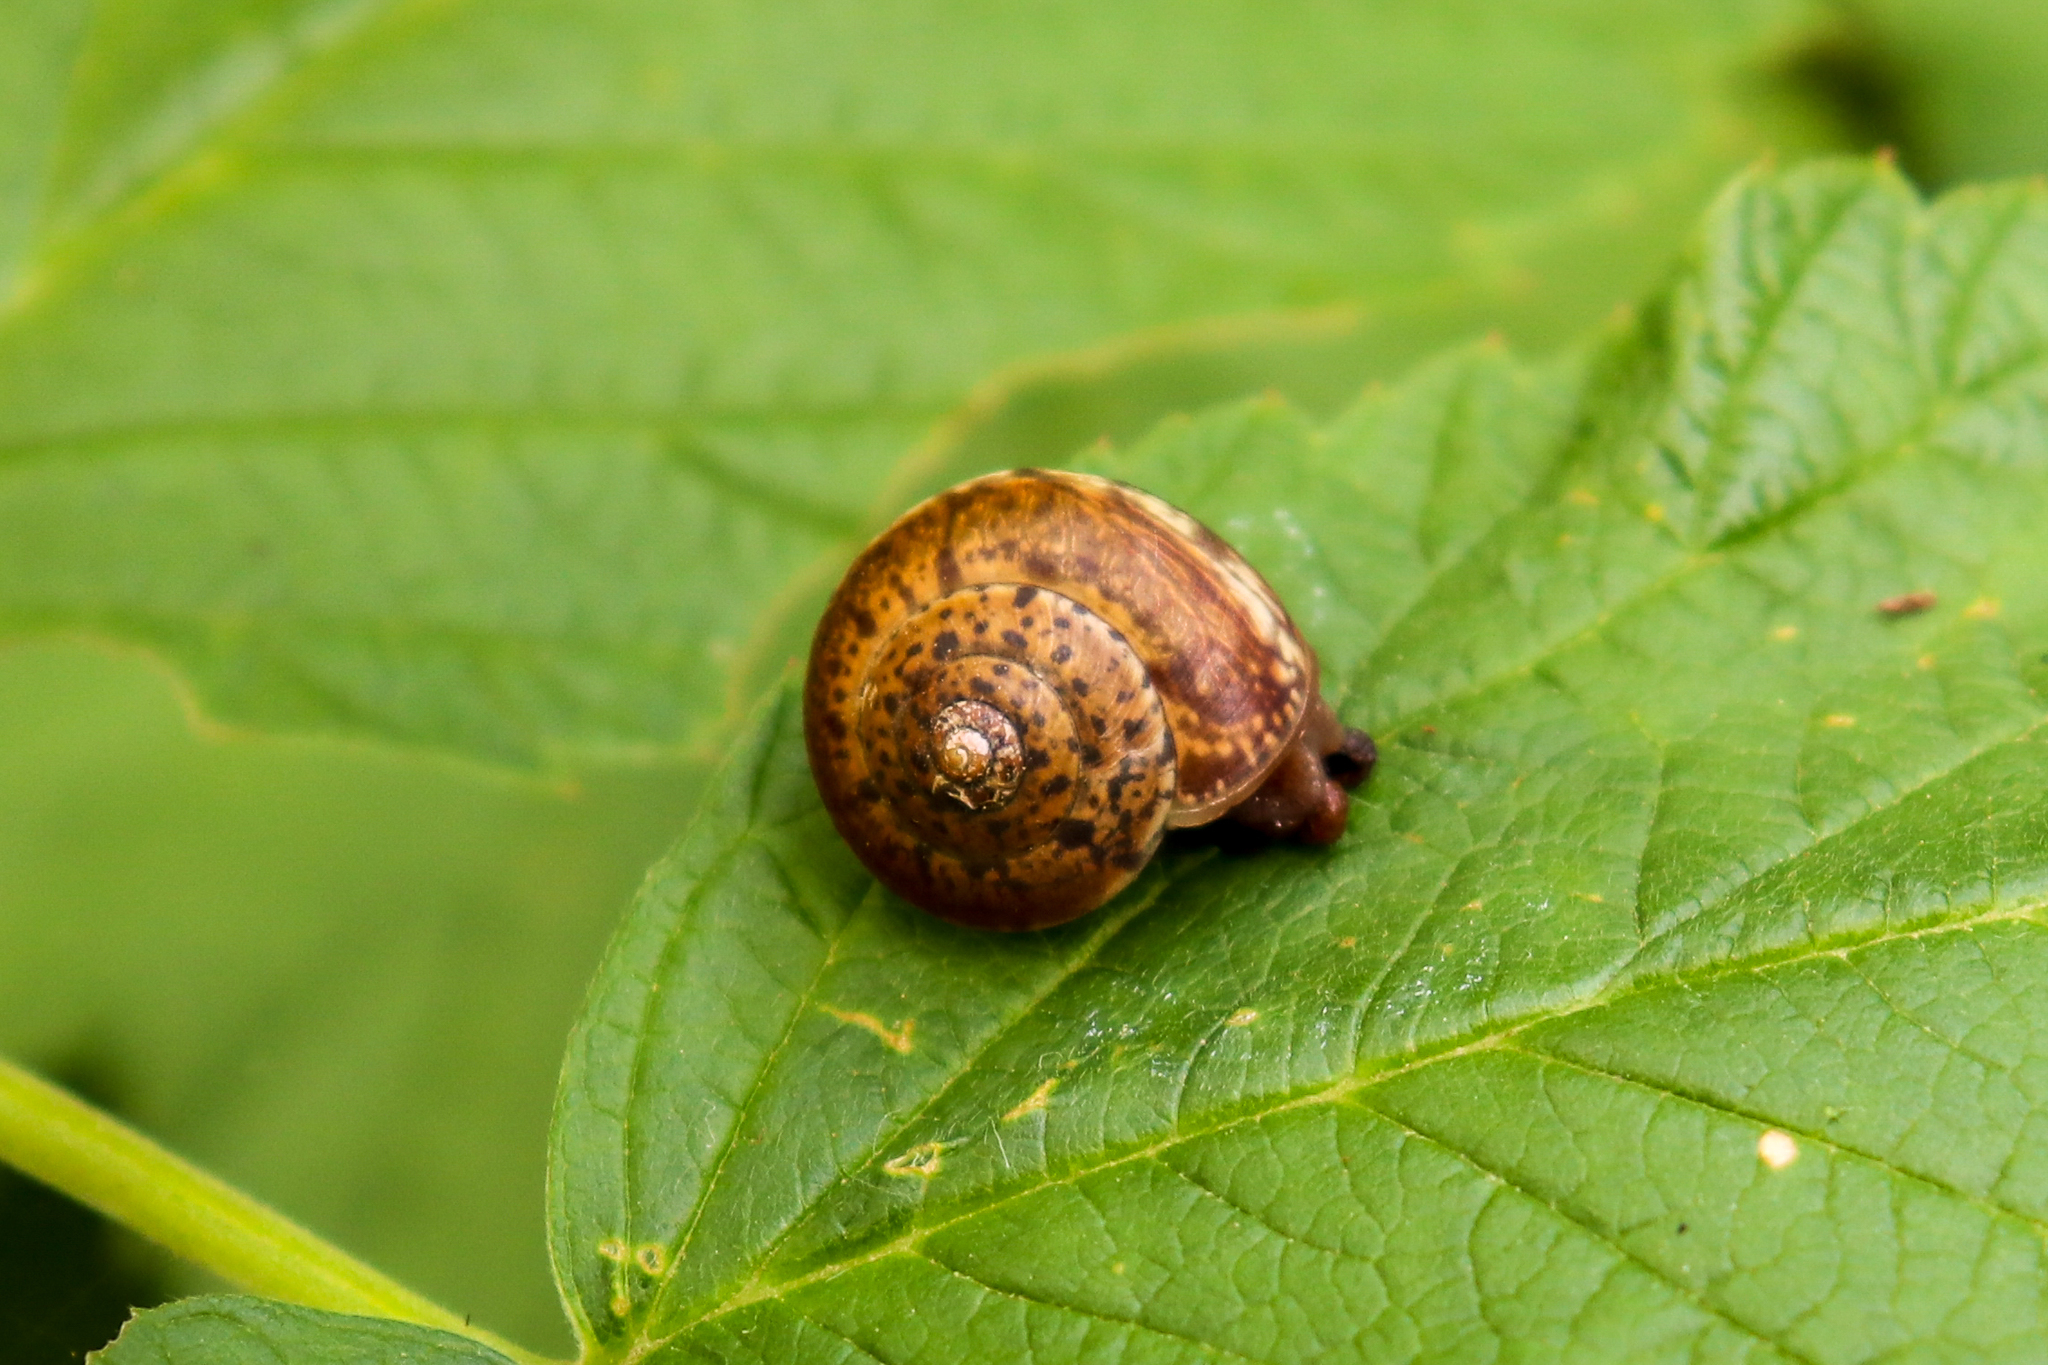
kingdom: Animalia
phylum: Mollusca
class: Gastropoda
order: Stylommatophora
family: Hygromiidae
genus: Abchasohela
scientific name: Abchasohela pachnodes
